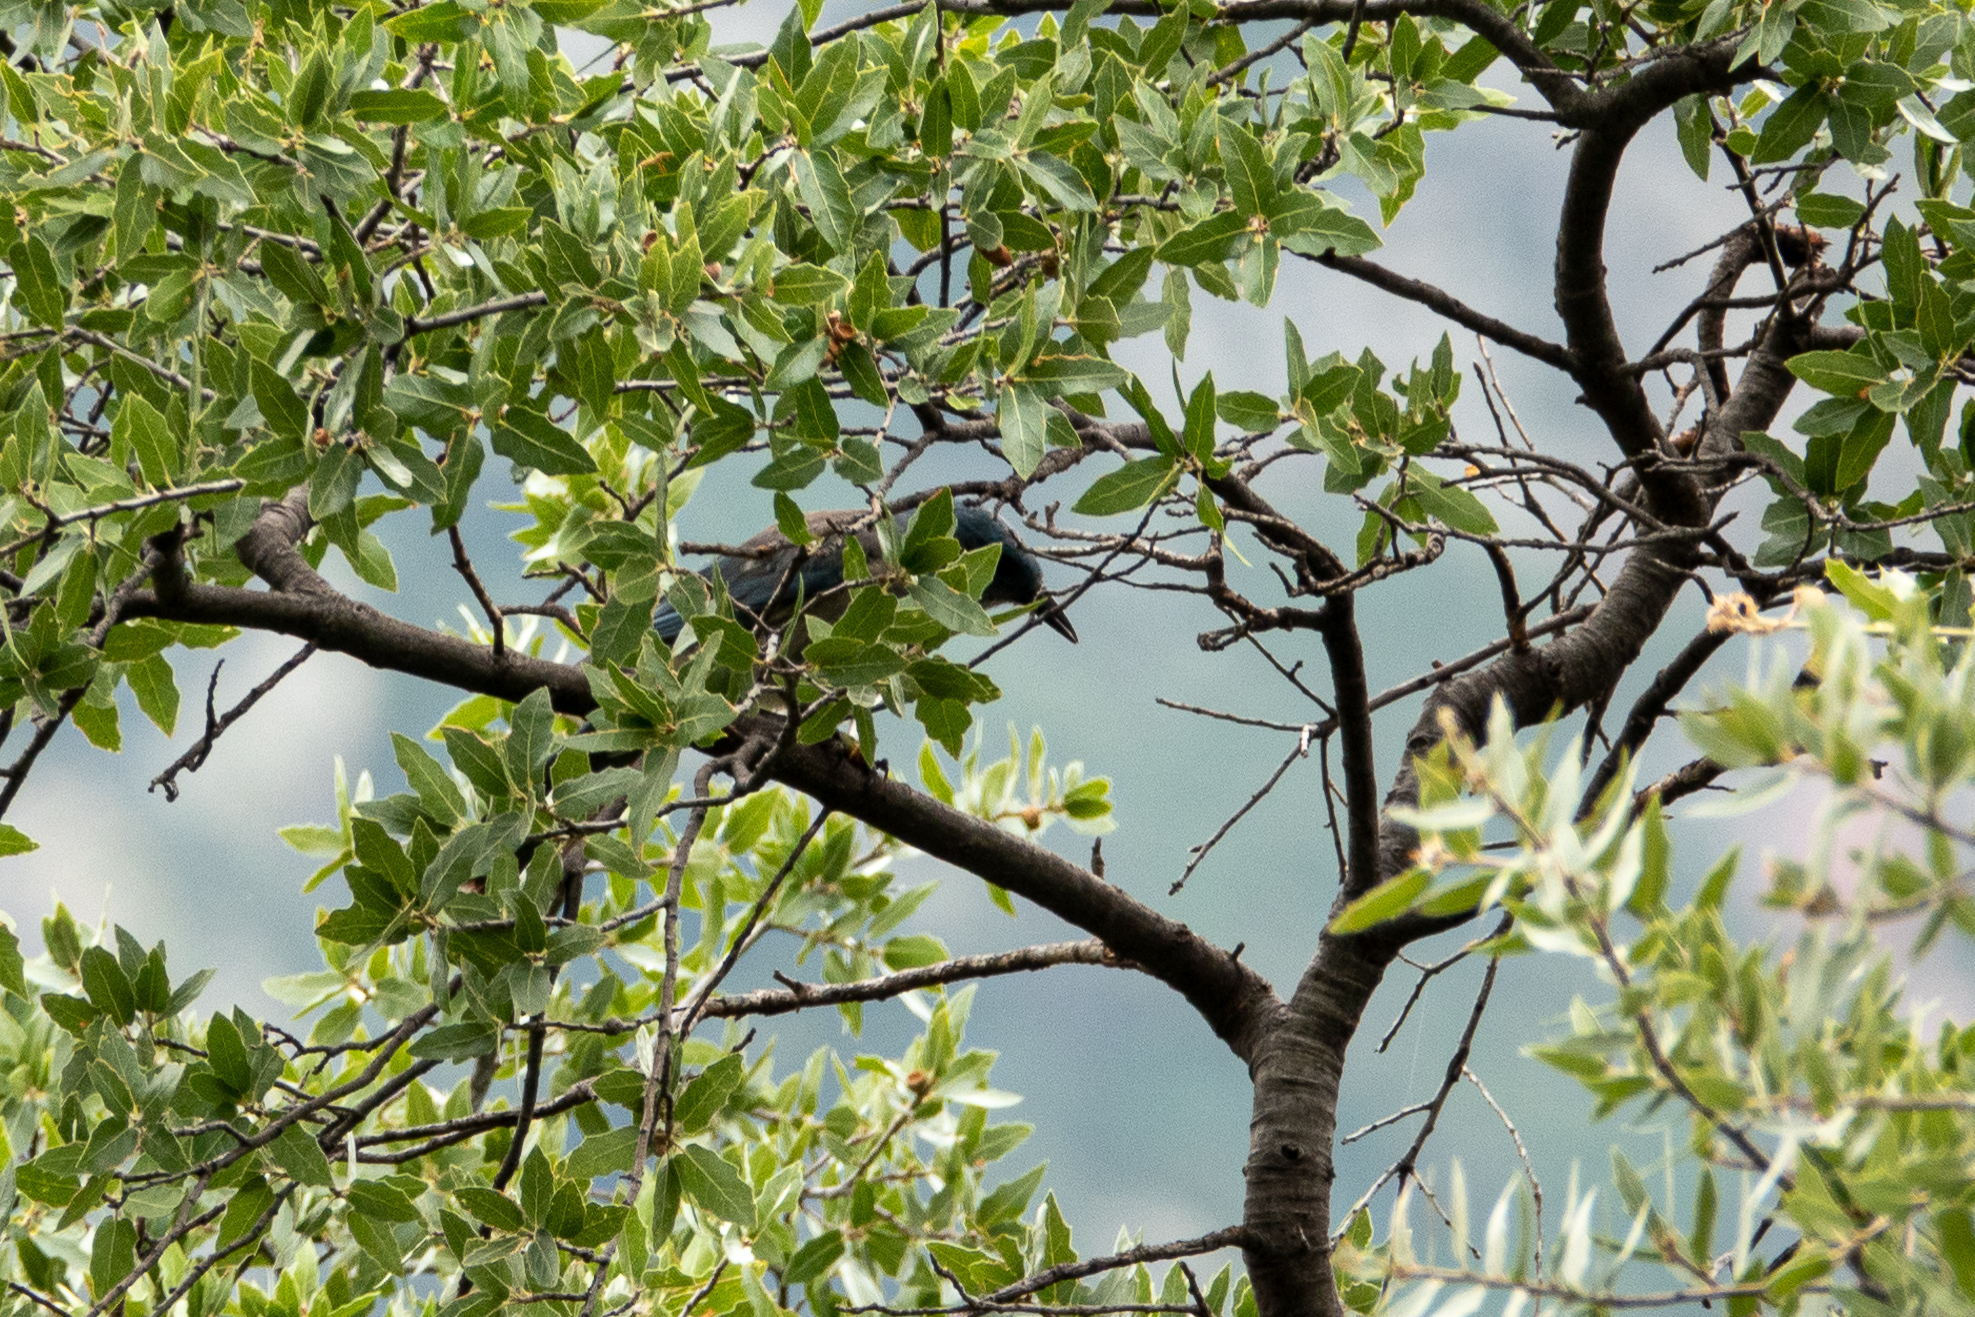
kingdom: Animalia
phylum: Chordata
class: Aves
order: Passeriformes
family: Corvidae
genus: Aphelocoma
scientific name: Aphelocoma wollweberi
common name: Mexican jay
